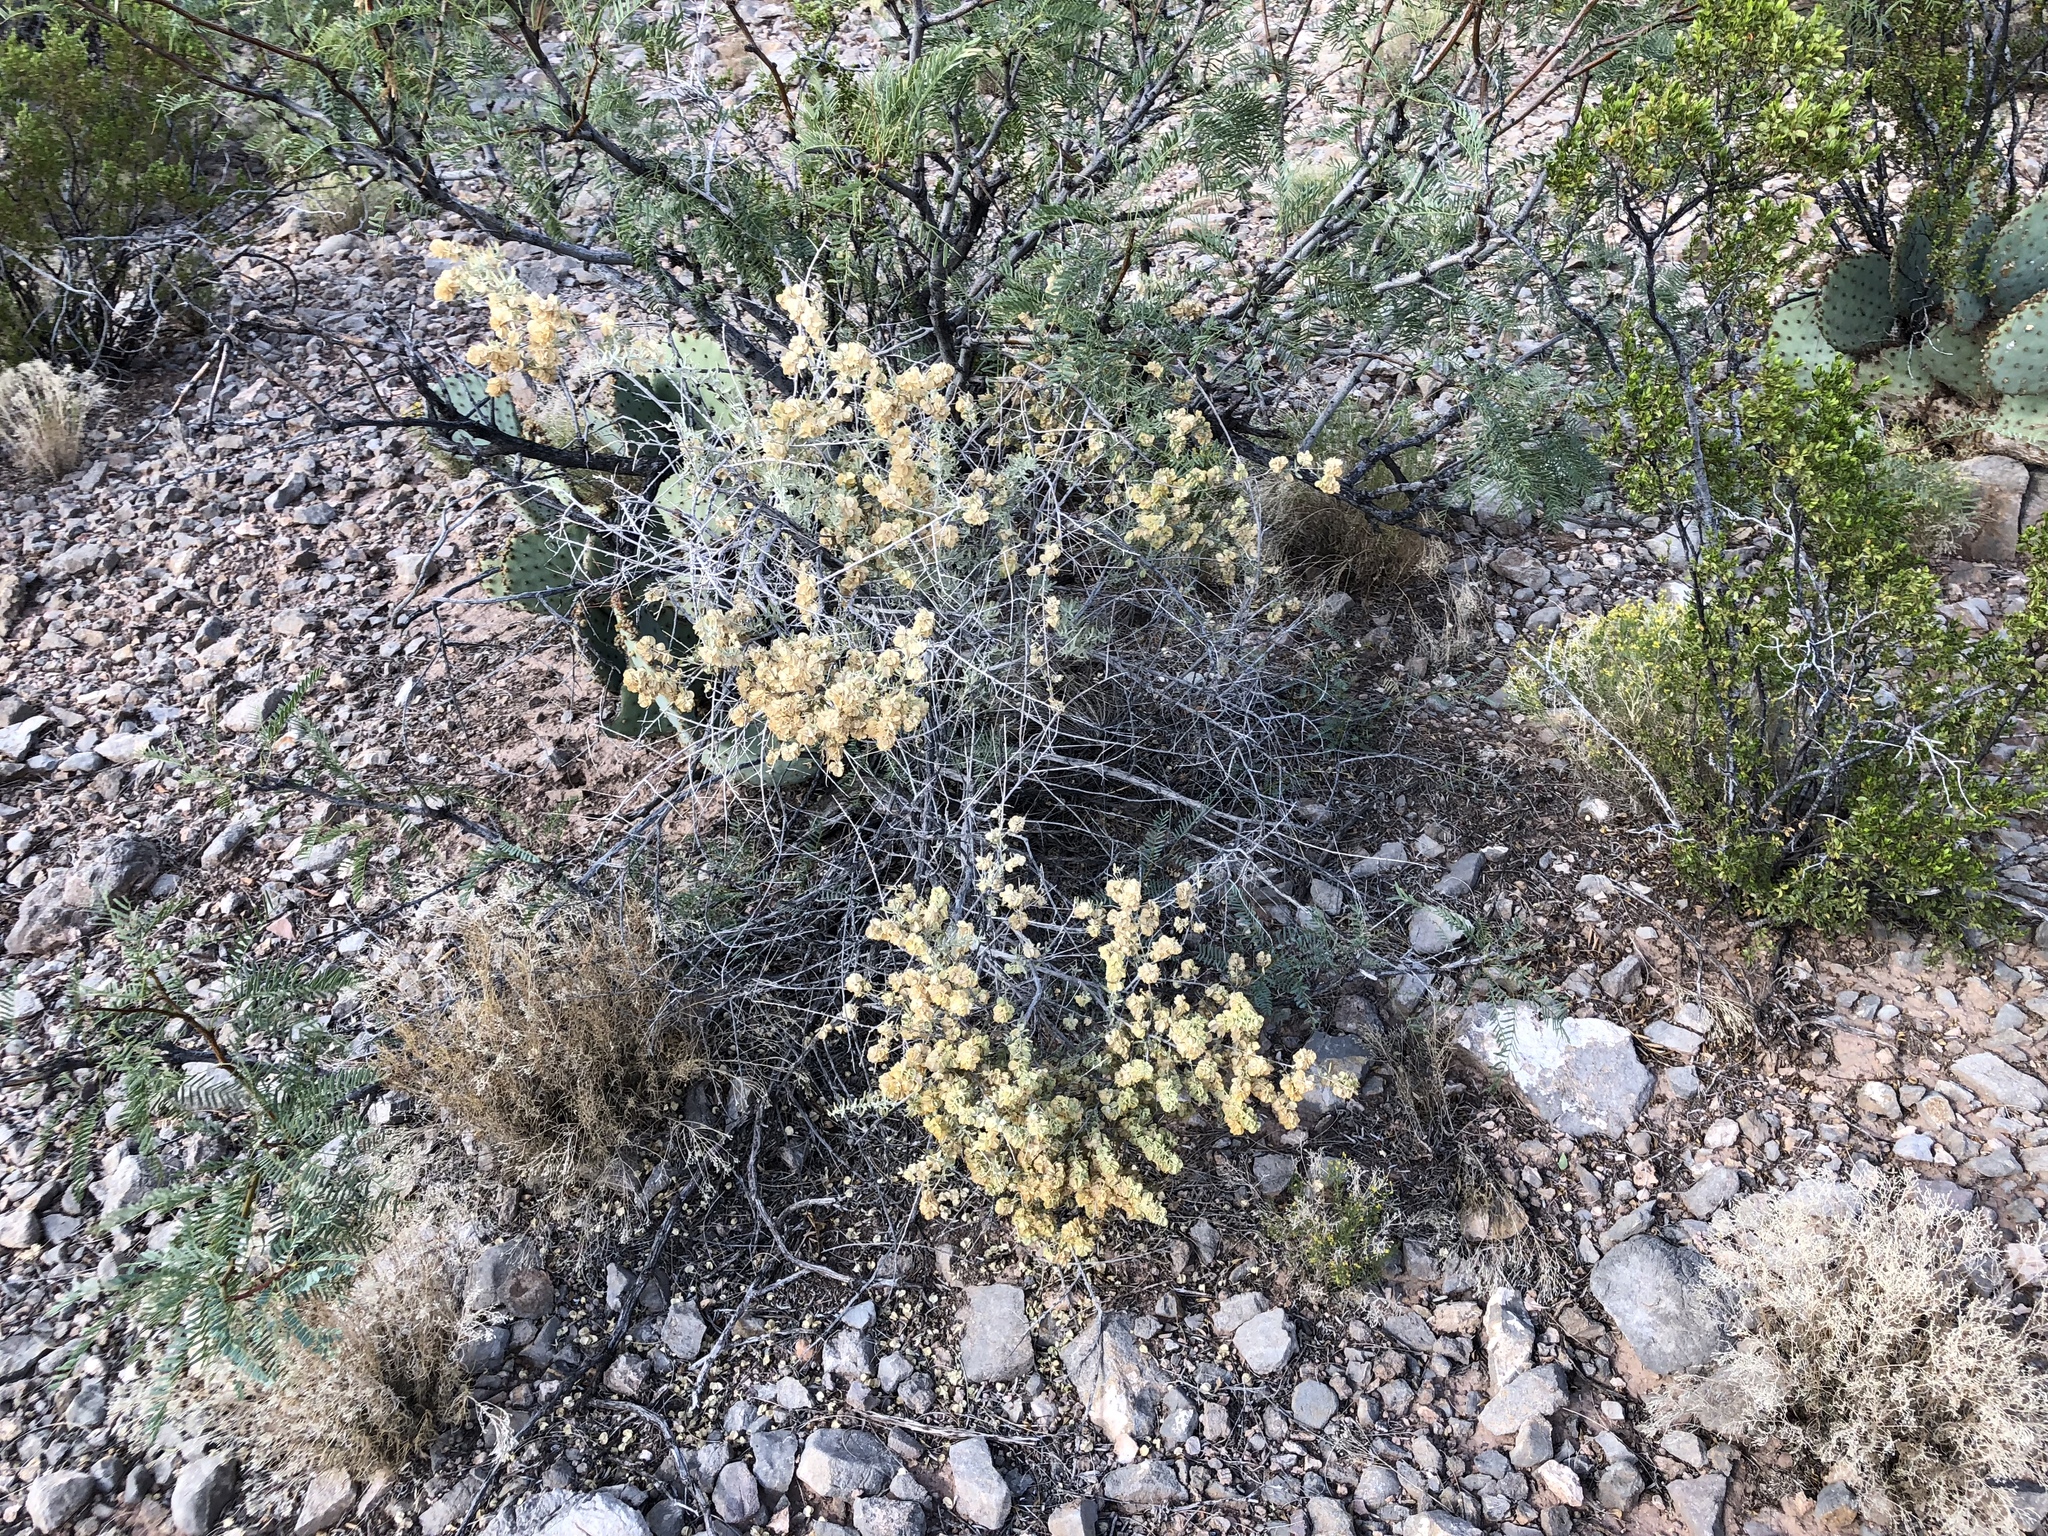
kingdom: Plantae
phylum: Tracheophyta
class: Magnoliopsida
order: Caryophyllales
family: Amaranthaceae
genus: Atriplex
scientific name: Atriplex canescens
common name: Four-wing saltbush
